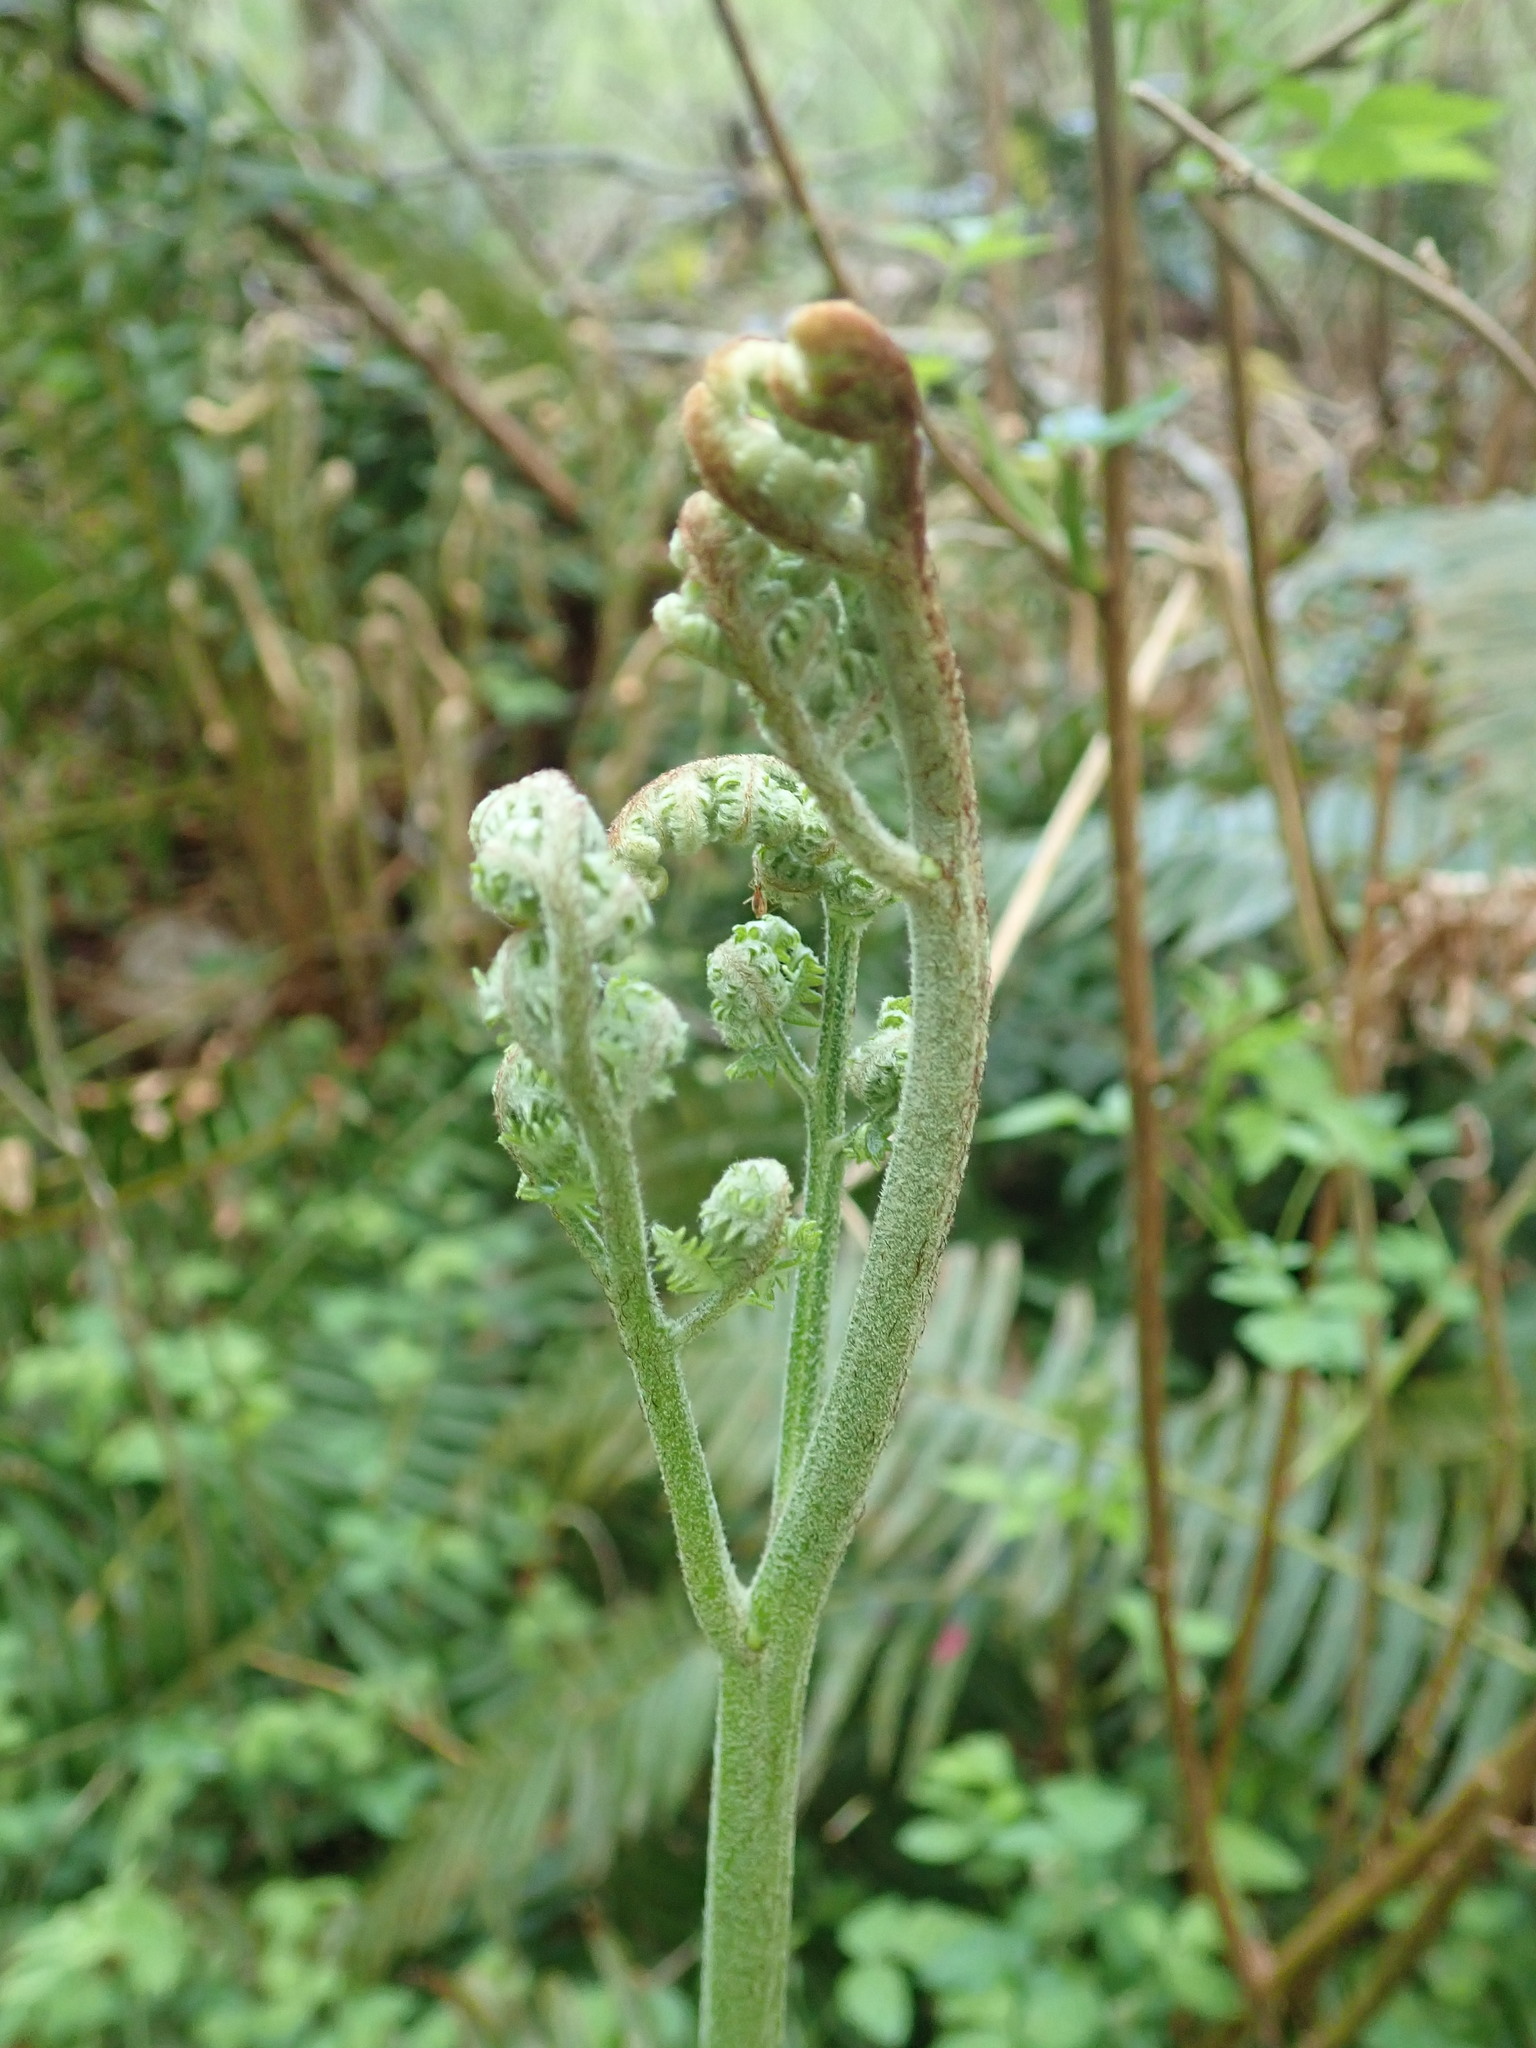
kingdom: Plantae
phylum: Tracheophyta
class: Polypodiopsida
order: Polypodiales
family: Dennstaedtiaceae
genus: Pteridium
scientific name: Pteridium aquilinum
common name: Bracken
